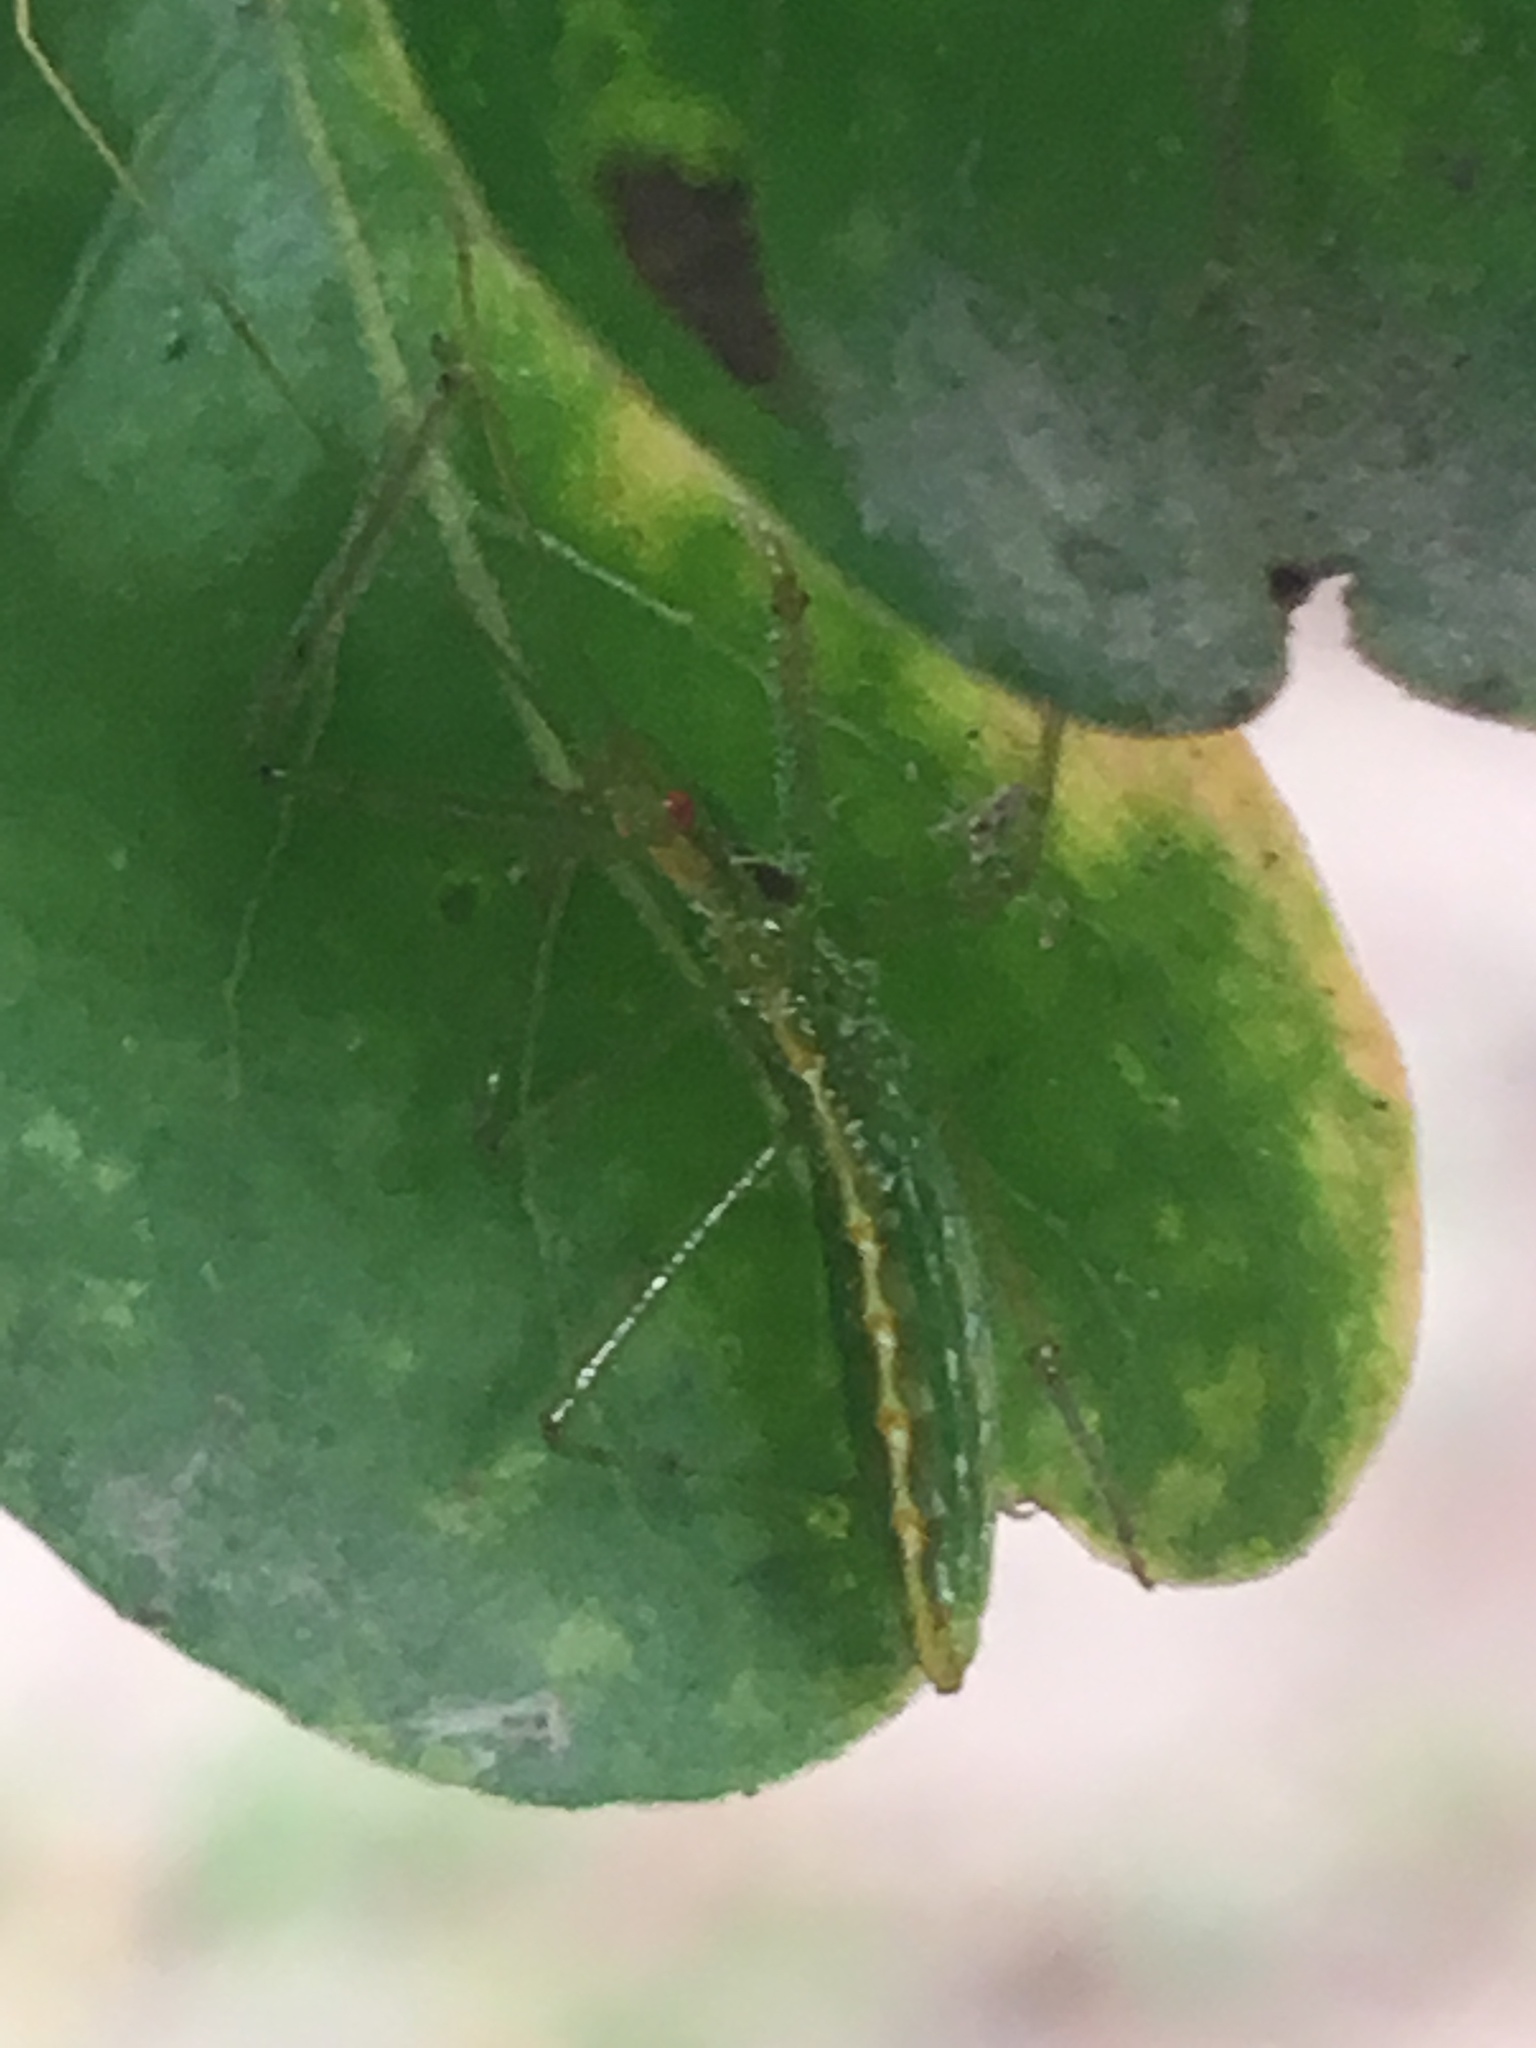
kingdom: Animalia
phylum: Arthropoda
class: Insecta
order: Hemiptera
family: Reduviidae
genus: Zelus
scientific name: Zelus luridus
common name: Pale green assassin bug
